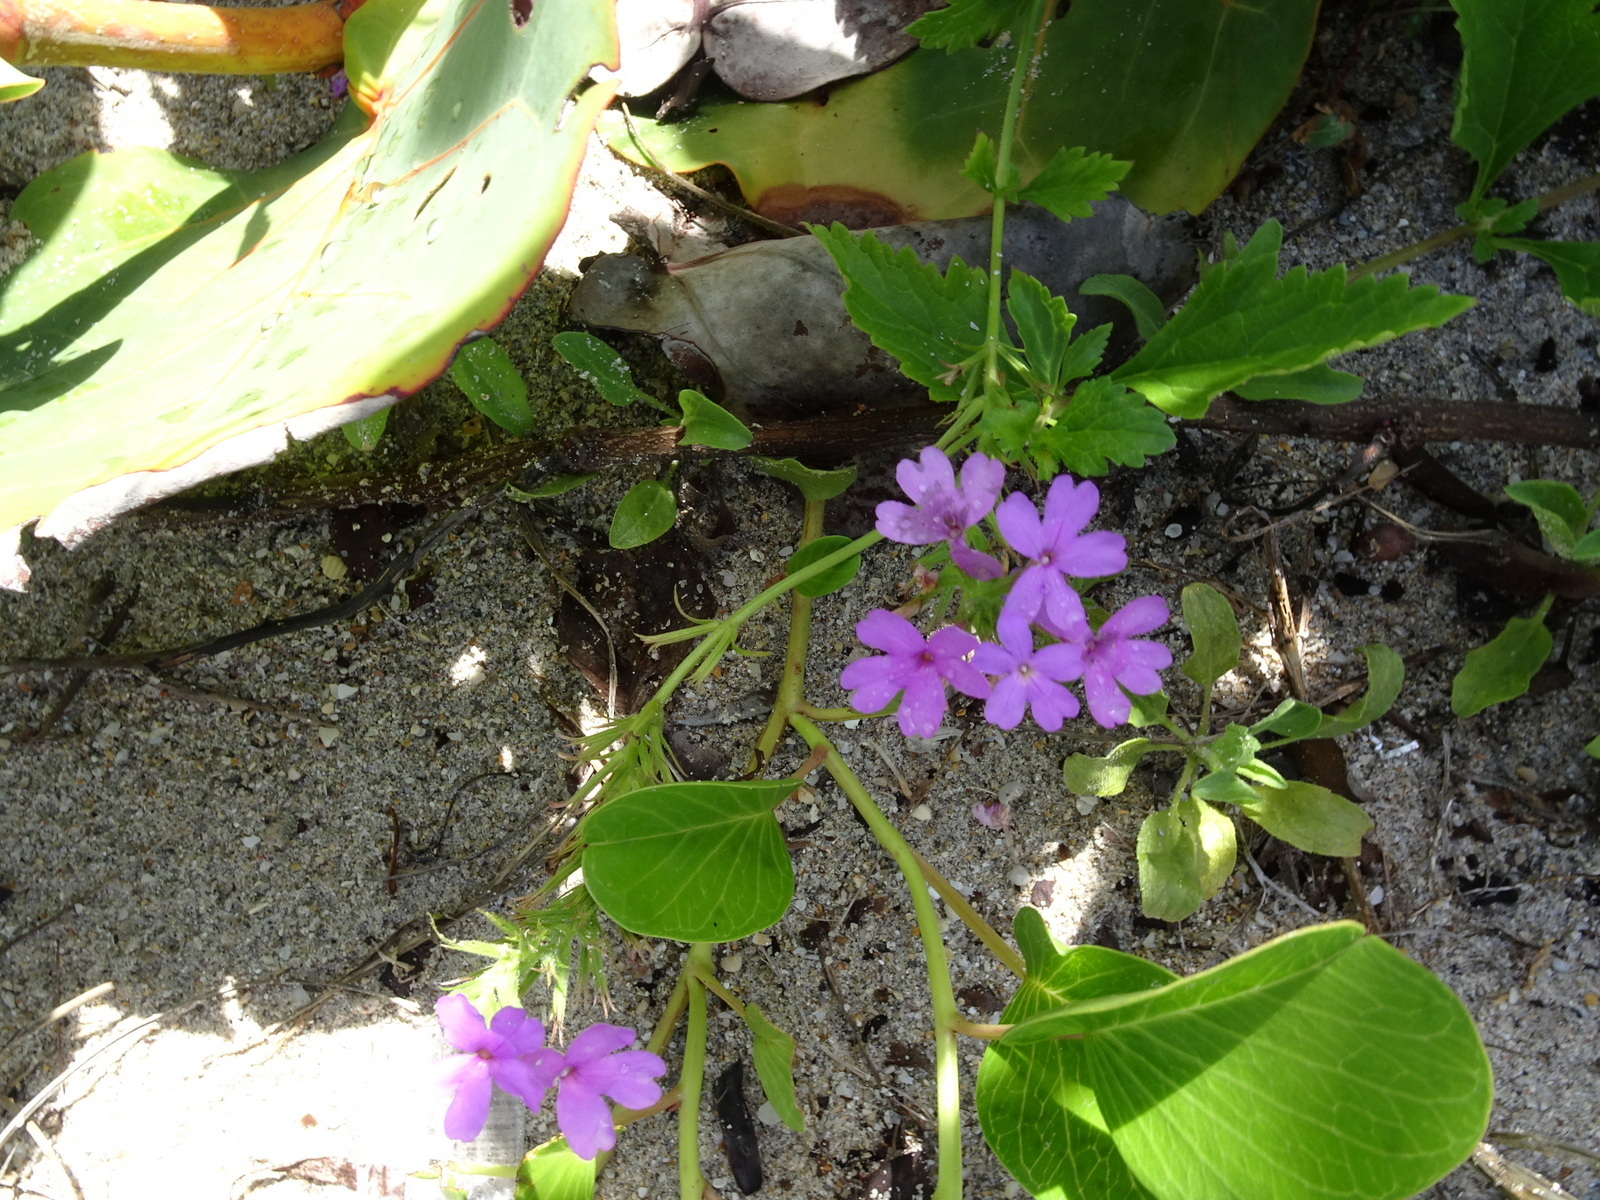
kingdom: Plantae
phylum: Tracheophyta
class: Magnoliopsida
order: Lamiales
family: Verbenaceae
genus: Verbena
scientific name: Verbena maritima
